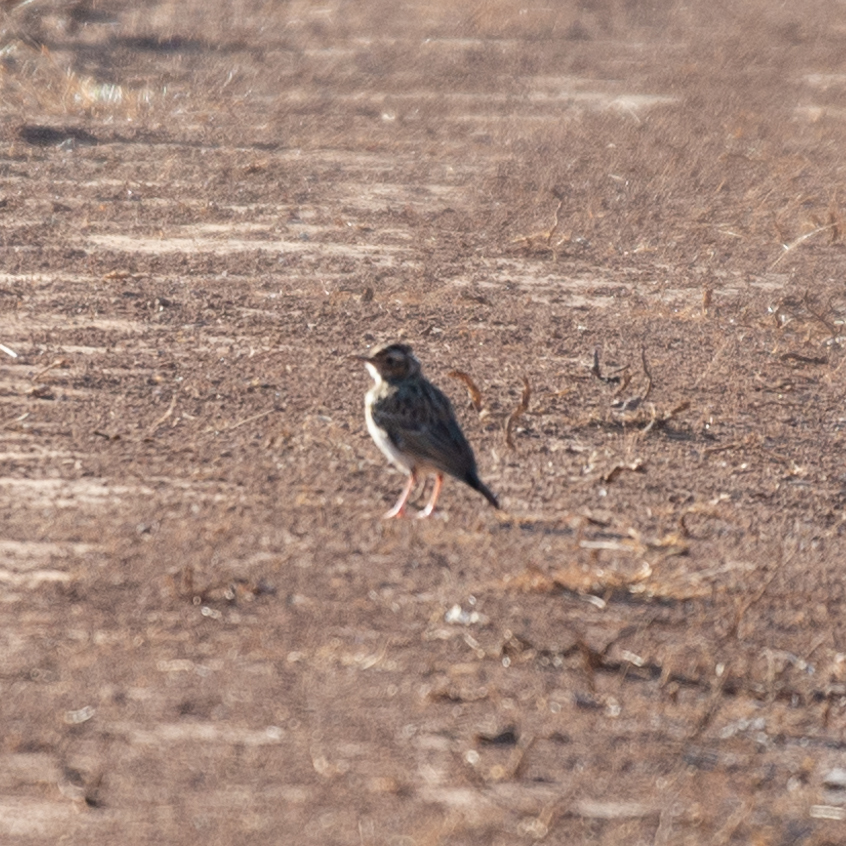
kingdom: Animalia
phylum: Chordata
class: Aves
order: Passeriformes
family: Alaudidae
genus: Lullula
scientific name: Lullula arborea
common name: Woodlark
